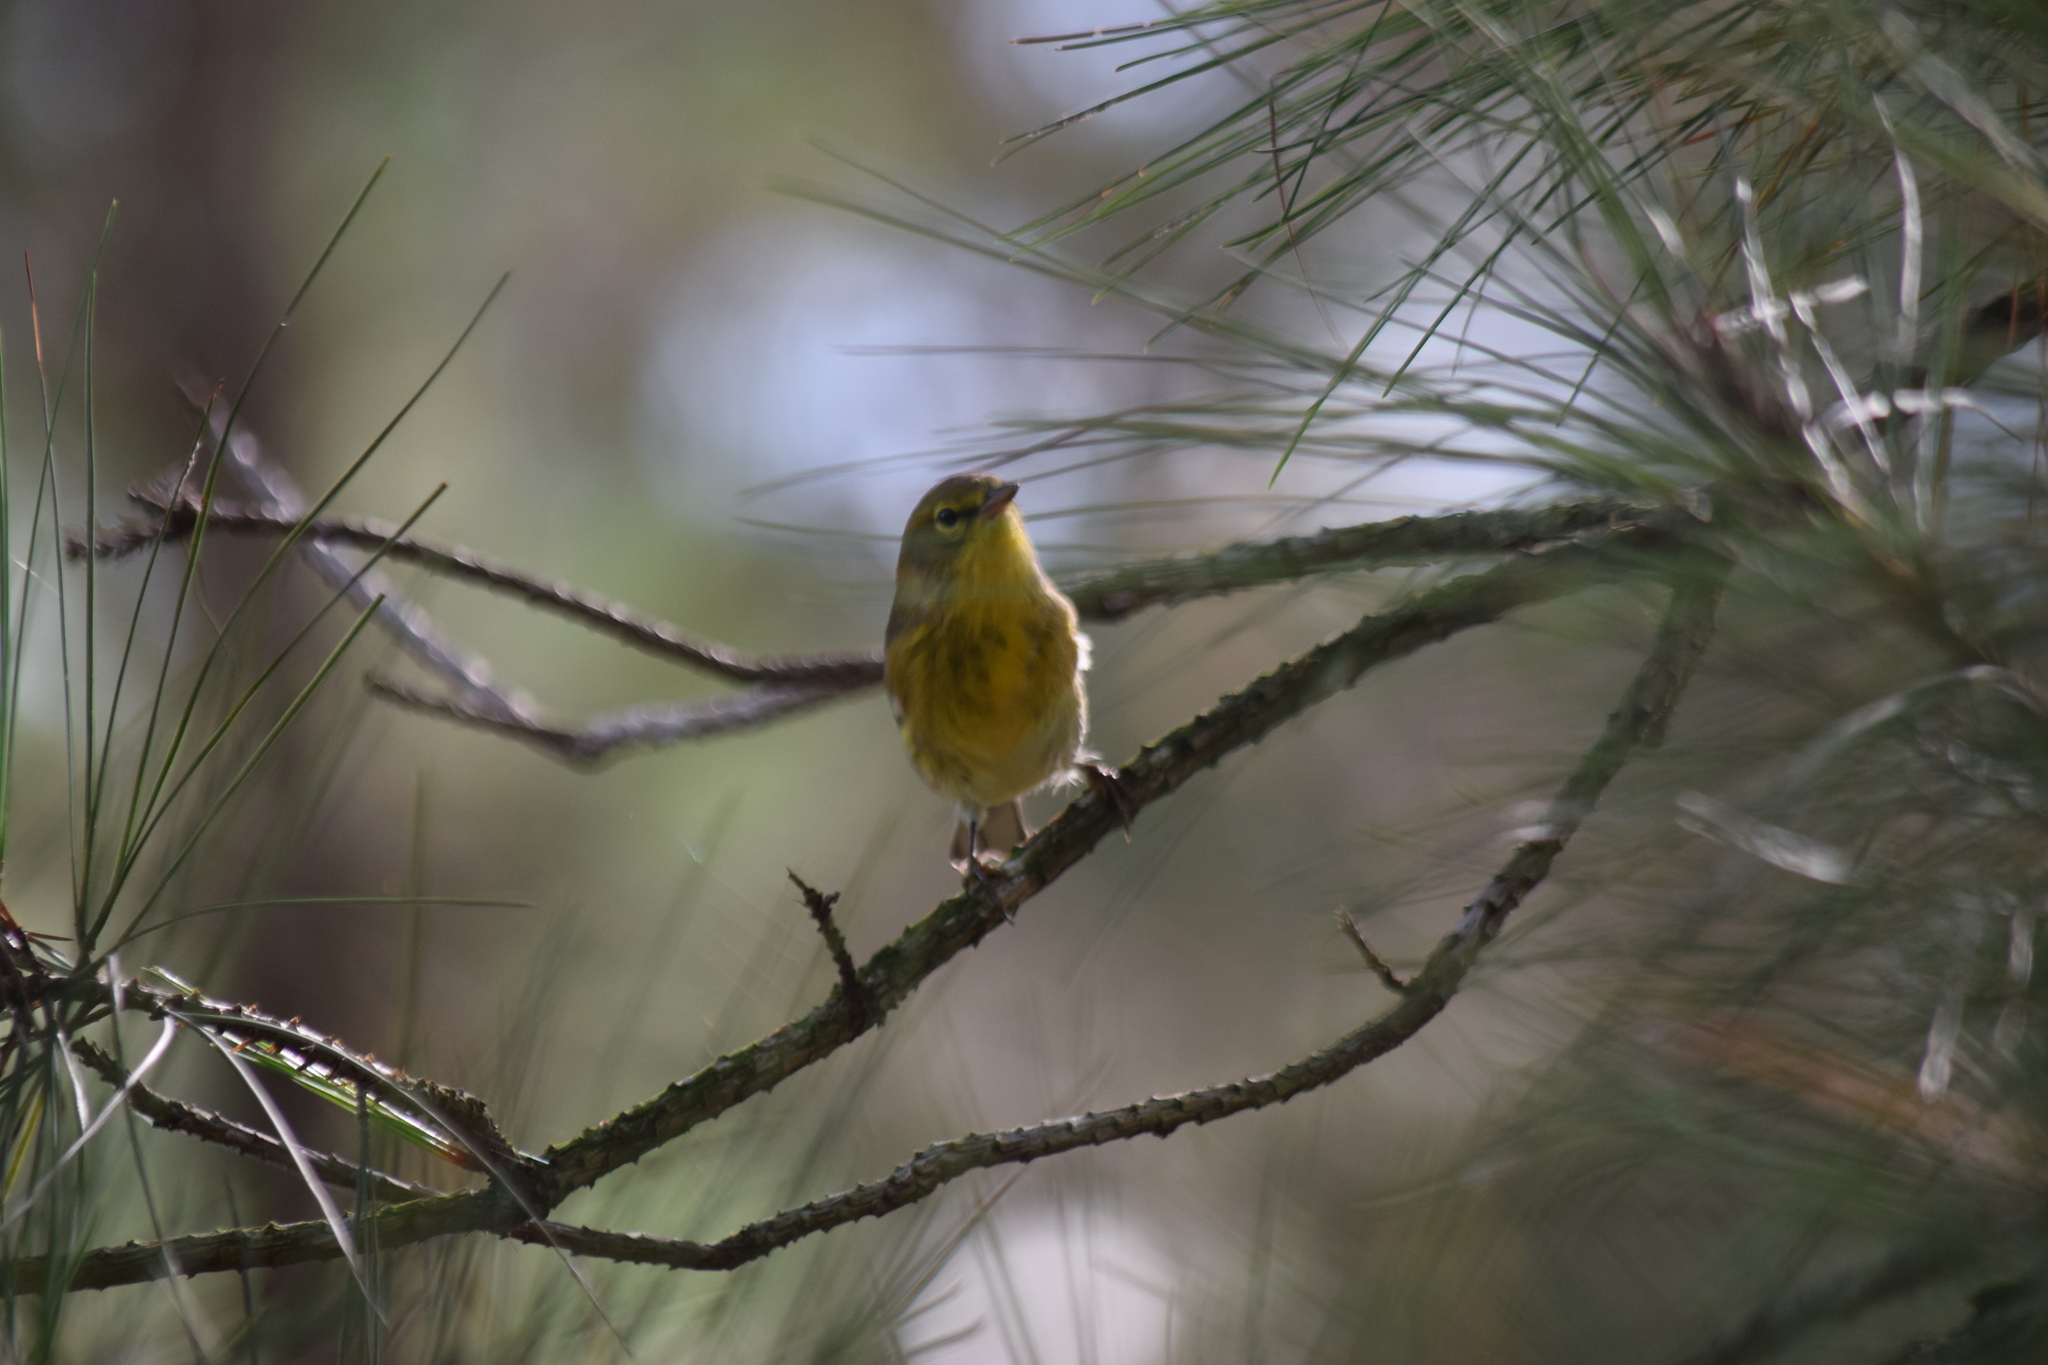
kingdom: Animalia
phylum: Chordata
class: Aves
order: Passeriformes
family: Parulidae
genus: Setophaga
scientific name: Setophaga pinus
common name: Pine warbler
